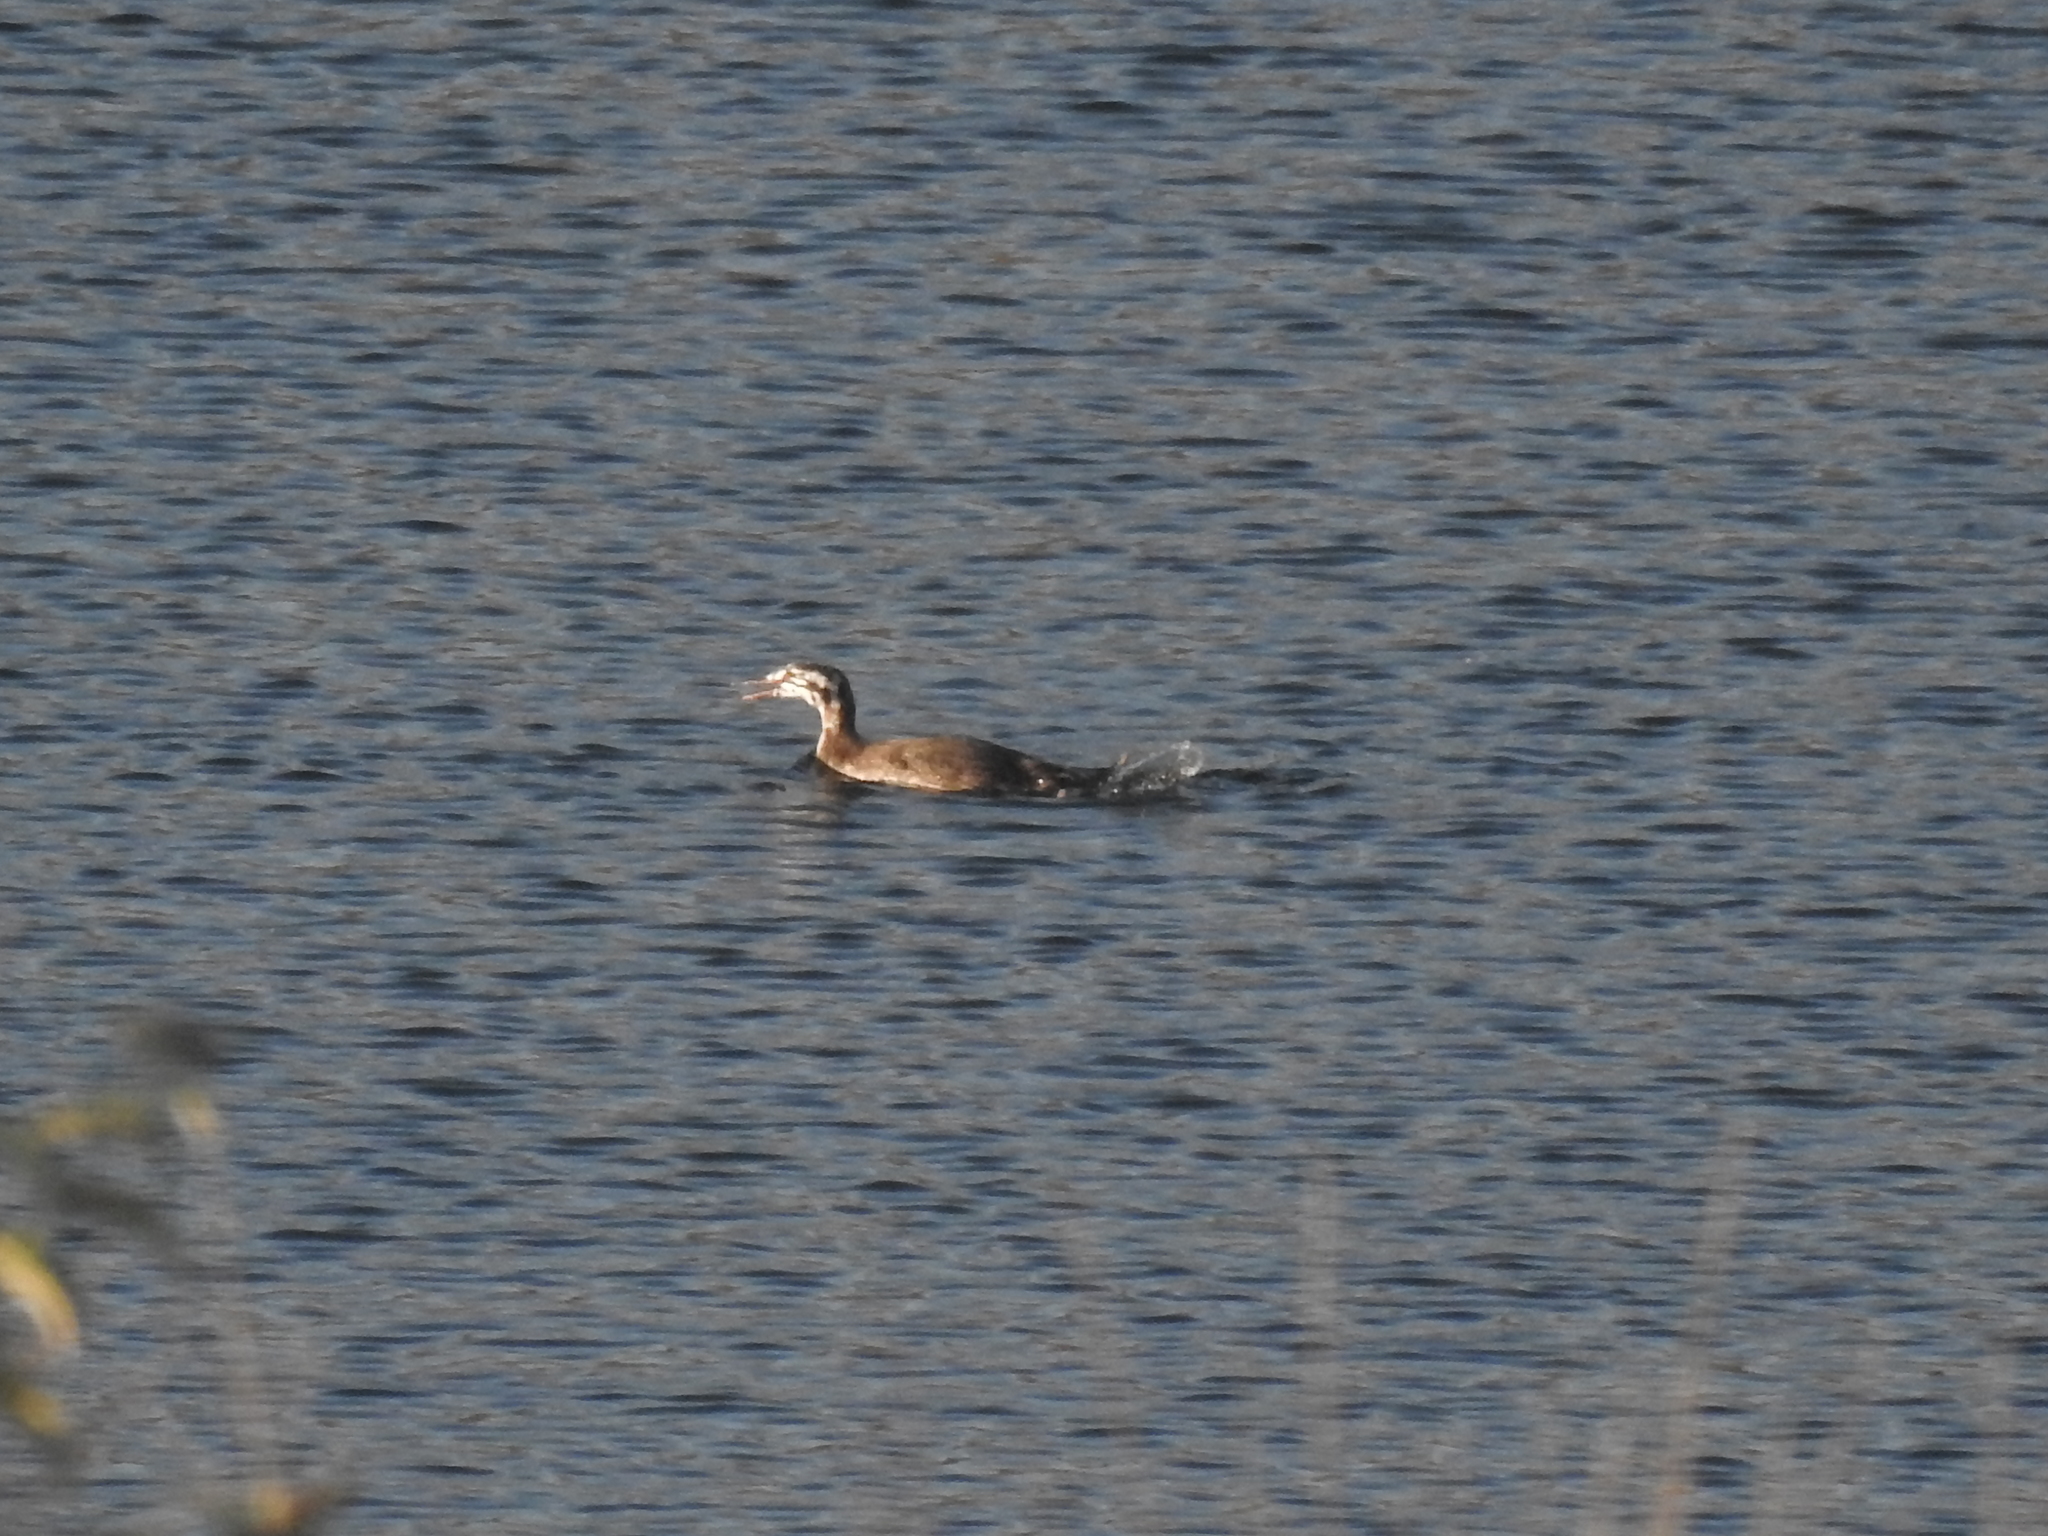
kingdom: Animalia
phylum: Chordata
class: Aves
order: Podicipediformes
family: Podicipedidae
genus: Podiceps
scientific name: Podiceps cristatus
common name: Great crested grebe
